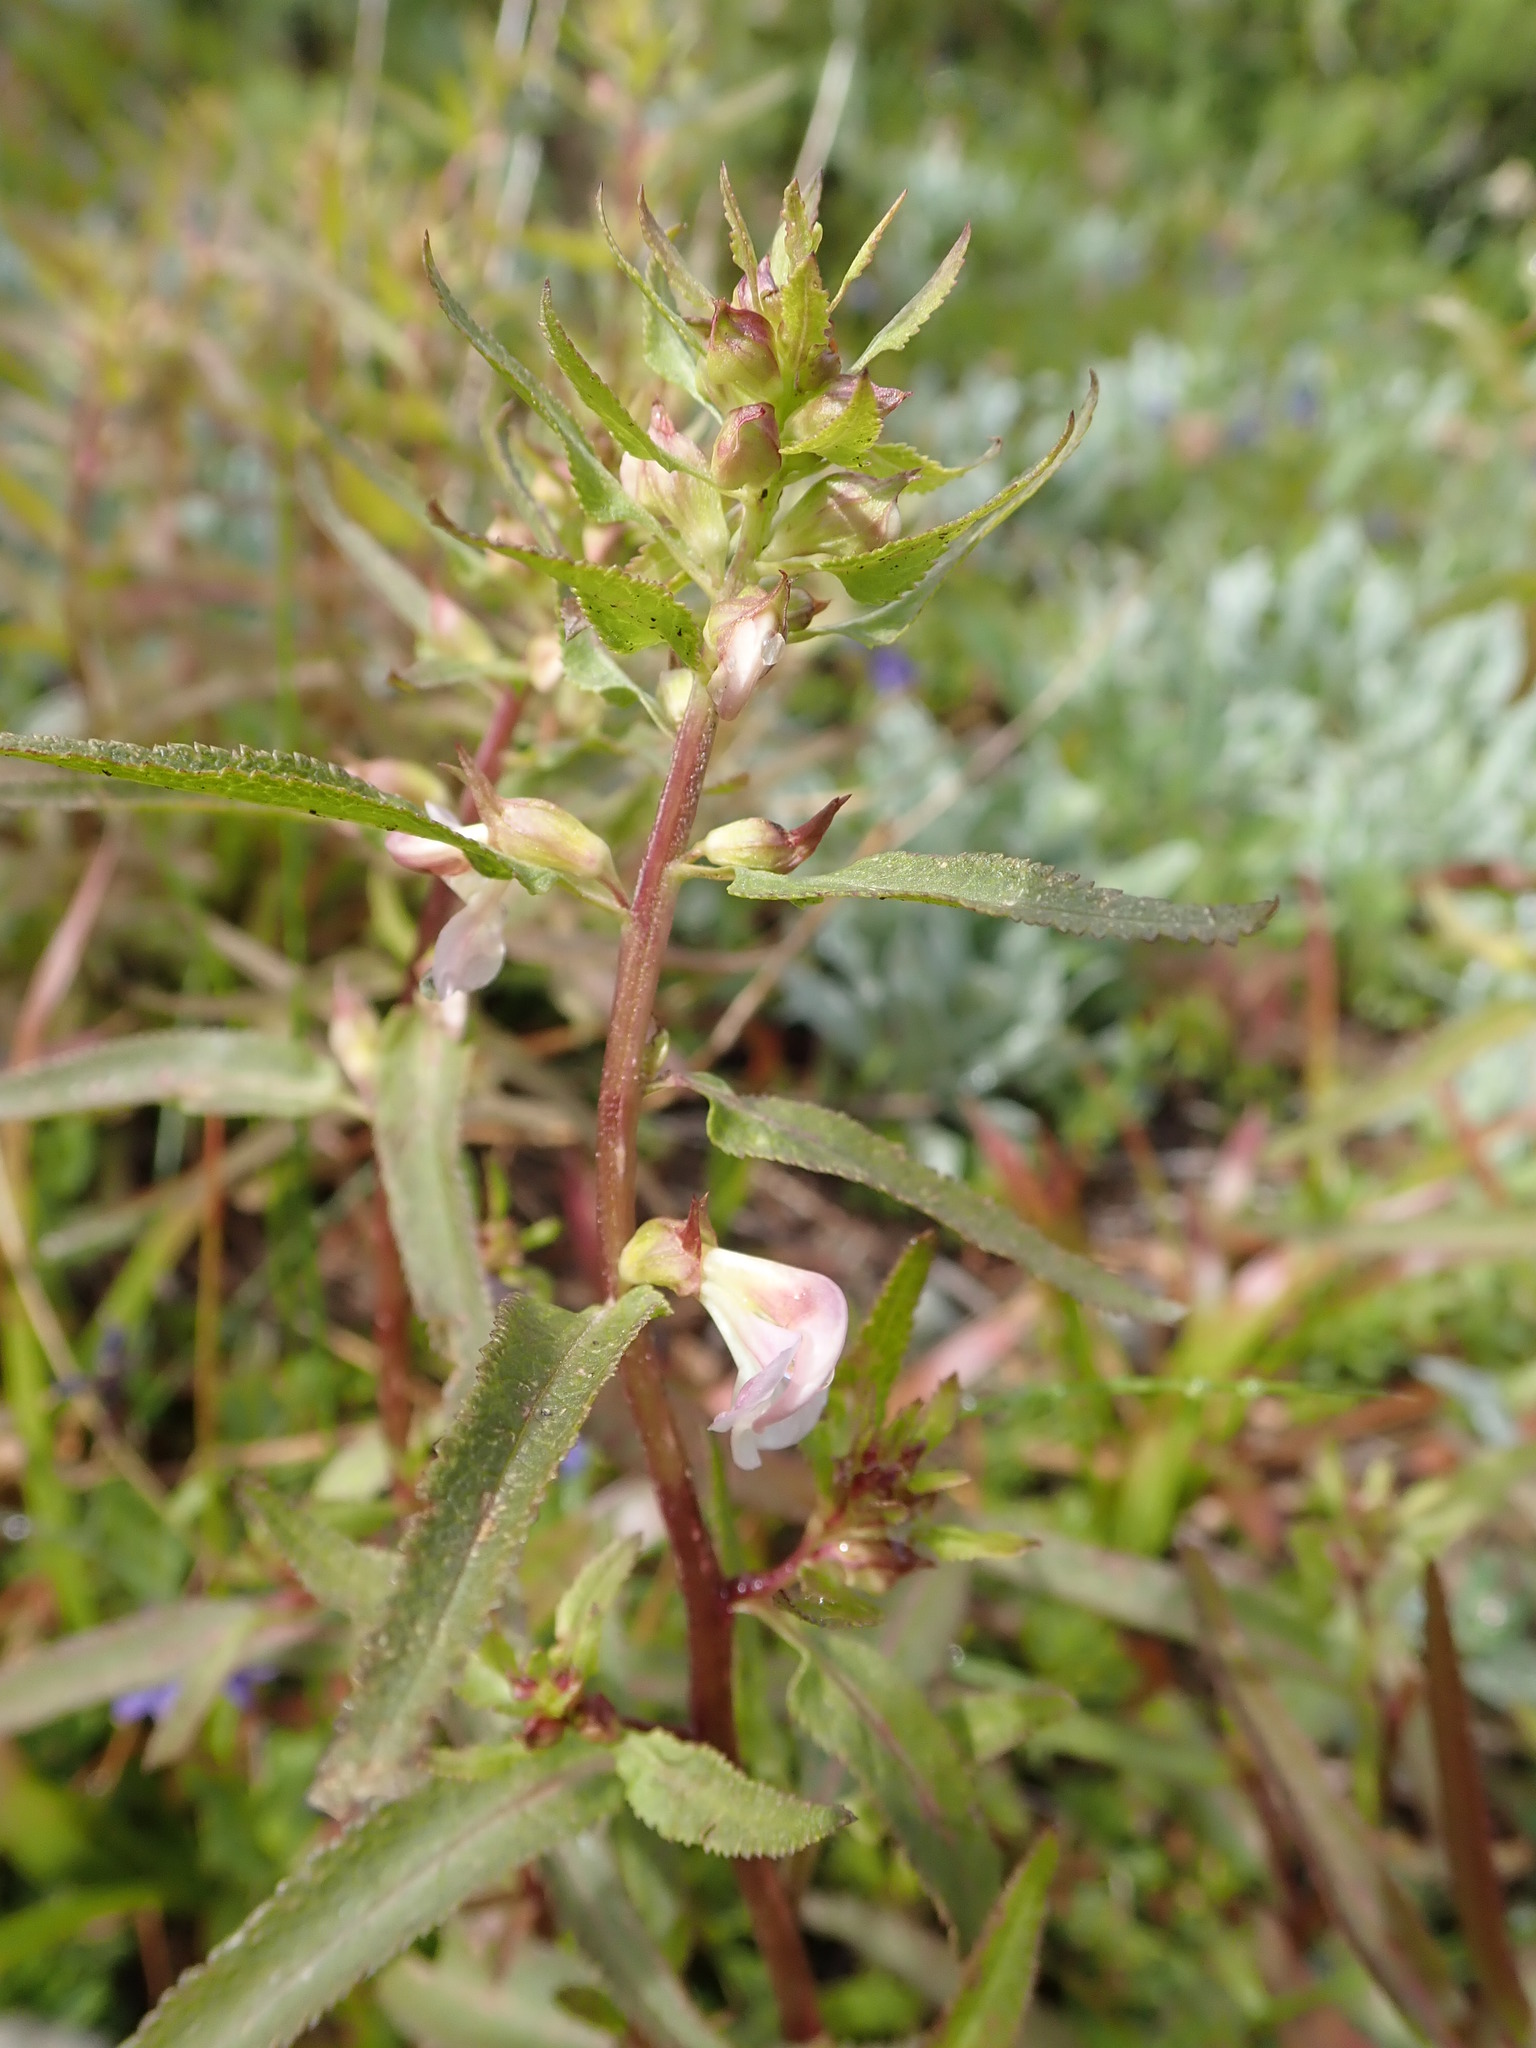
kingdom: Plantae
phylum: Tracheophyta
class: Magnoliopsida
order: Lamiales
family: Orobanchaceae
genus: Pedicularis
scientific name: Pedicularis racemosa
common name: Leafy lousewort
